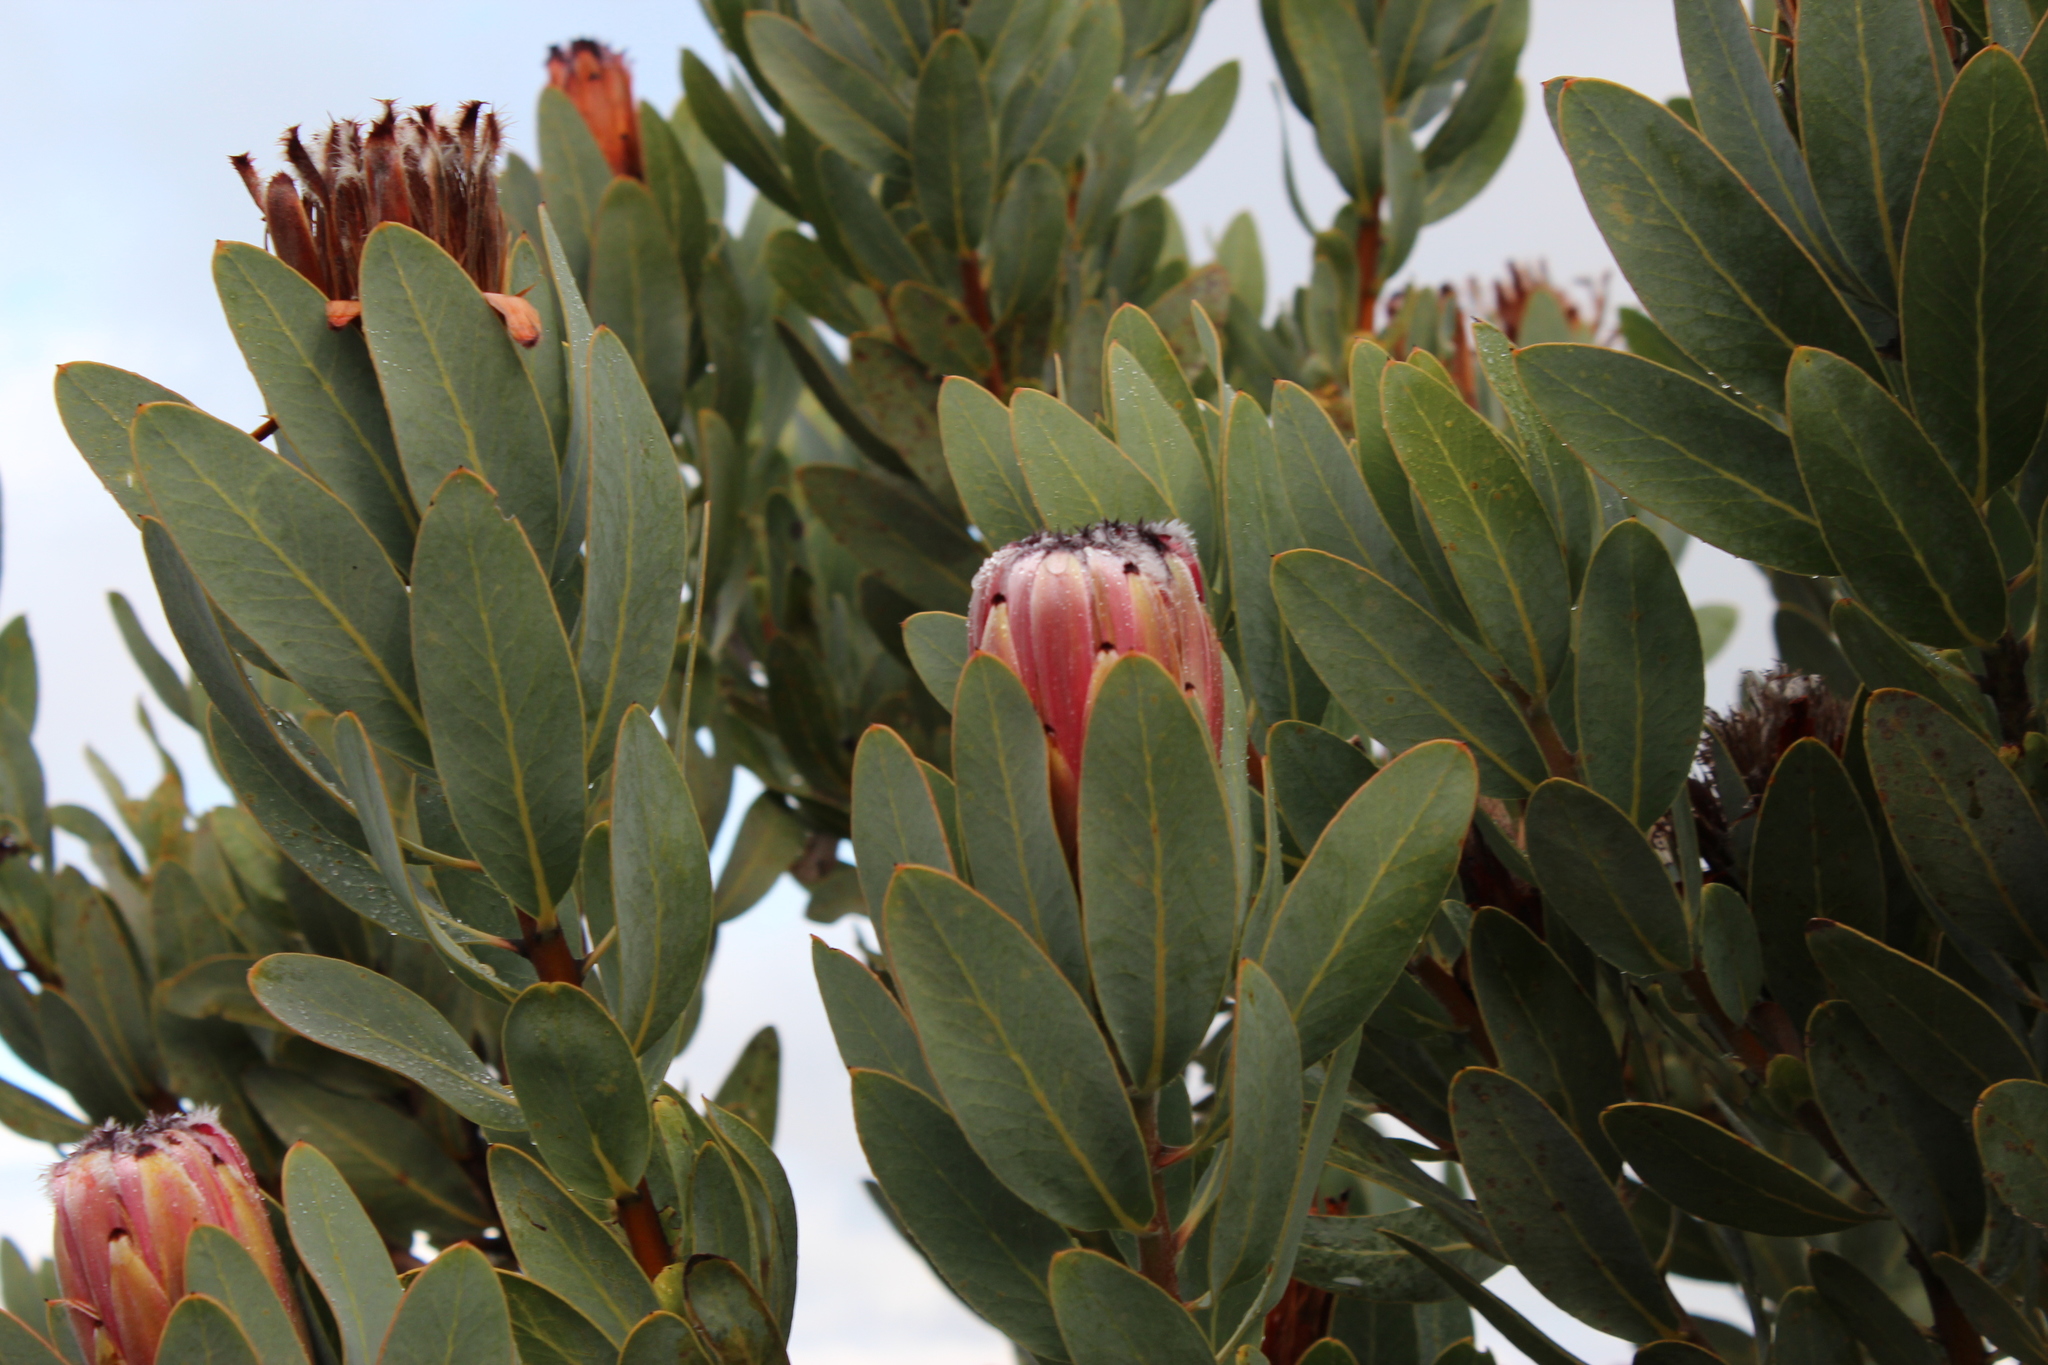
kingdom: Plantae
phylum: Tracheophyta
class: Magnoliopsida
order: Proteales
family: Proteaceae
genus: Protea
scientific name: Protea laurifolia
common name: Grey-leaf sugarbsh
